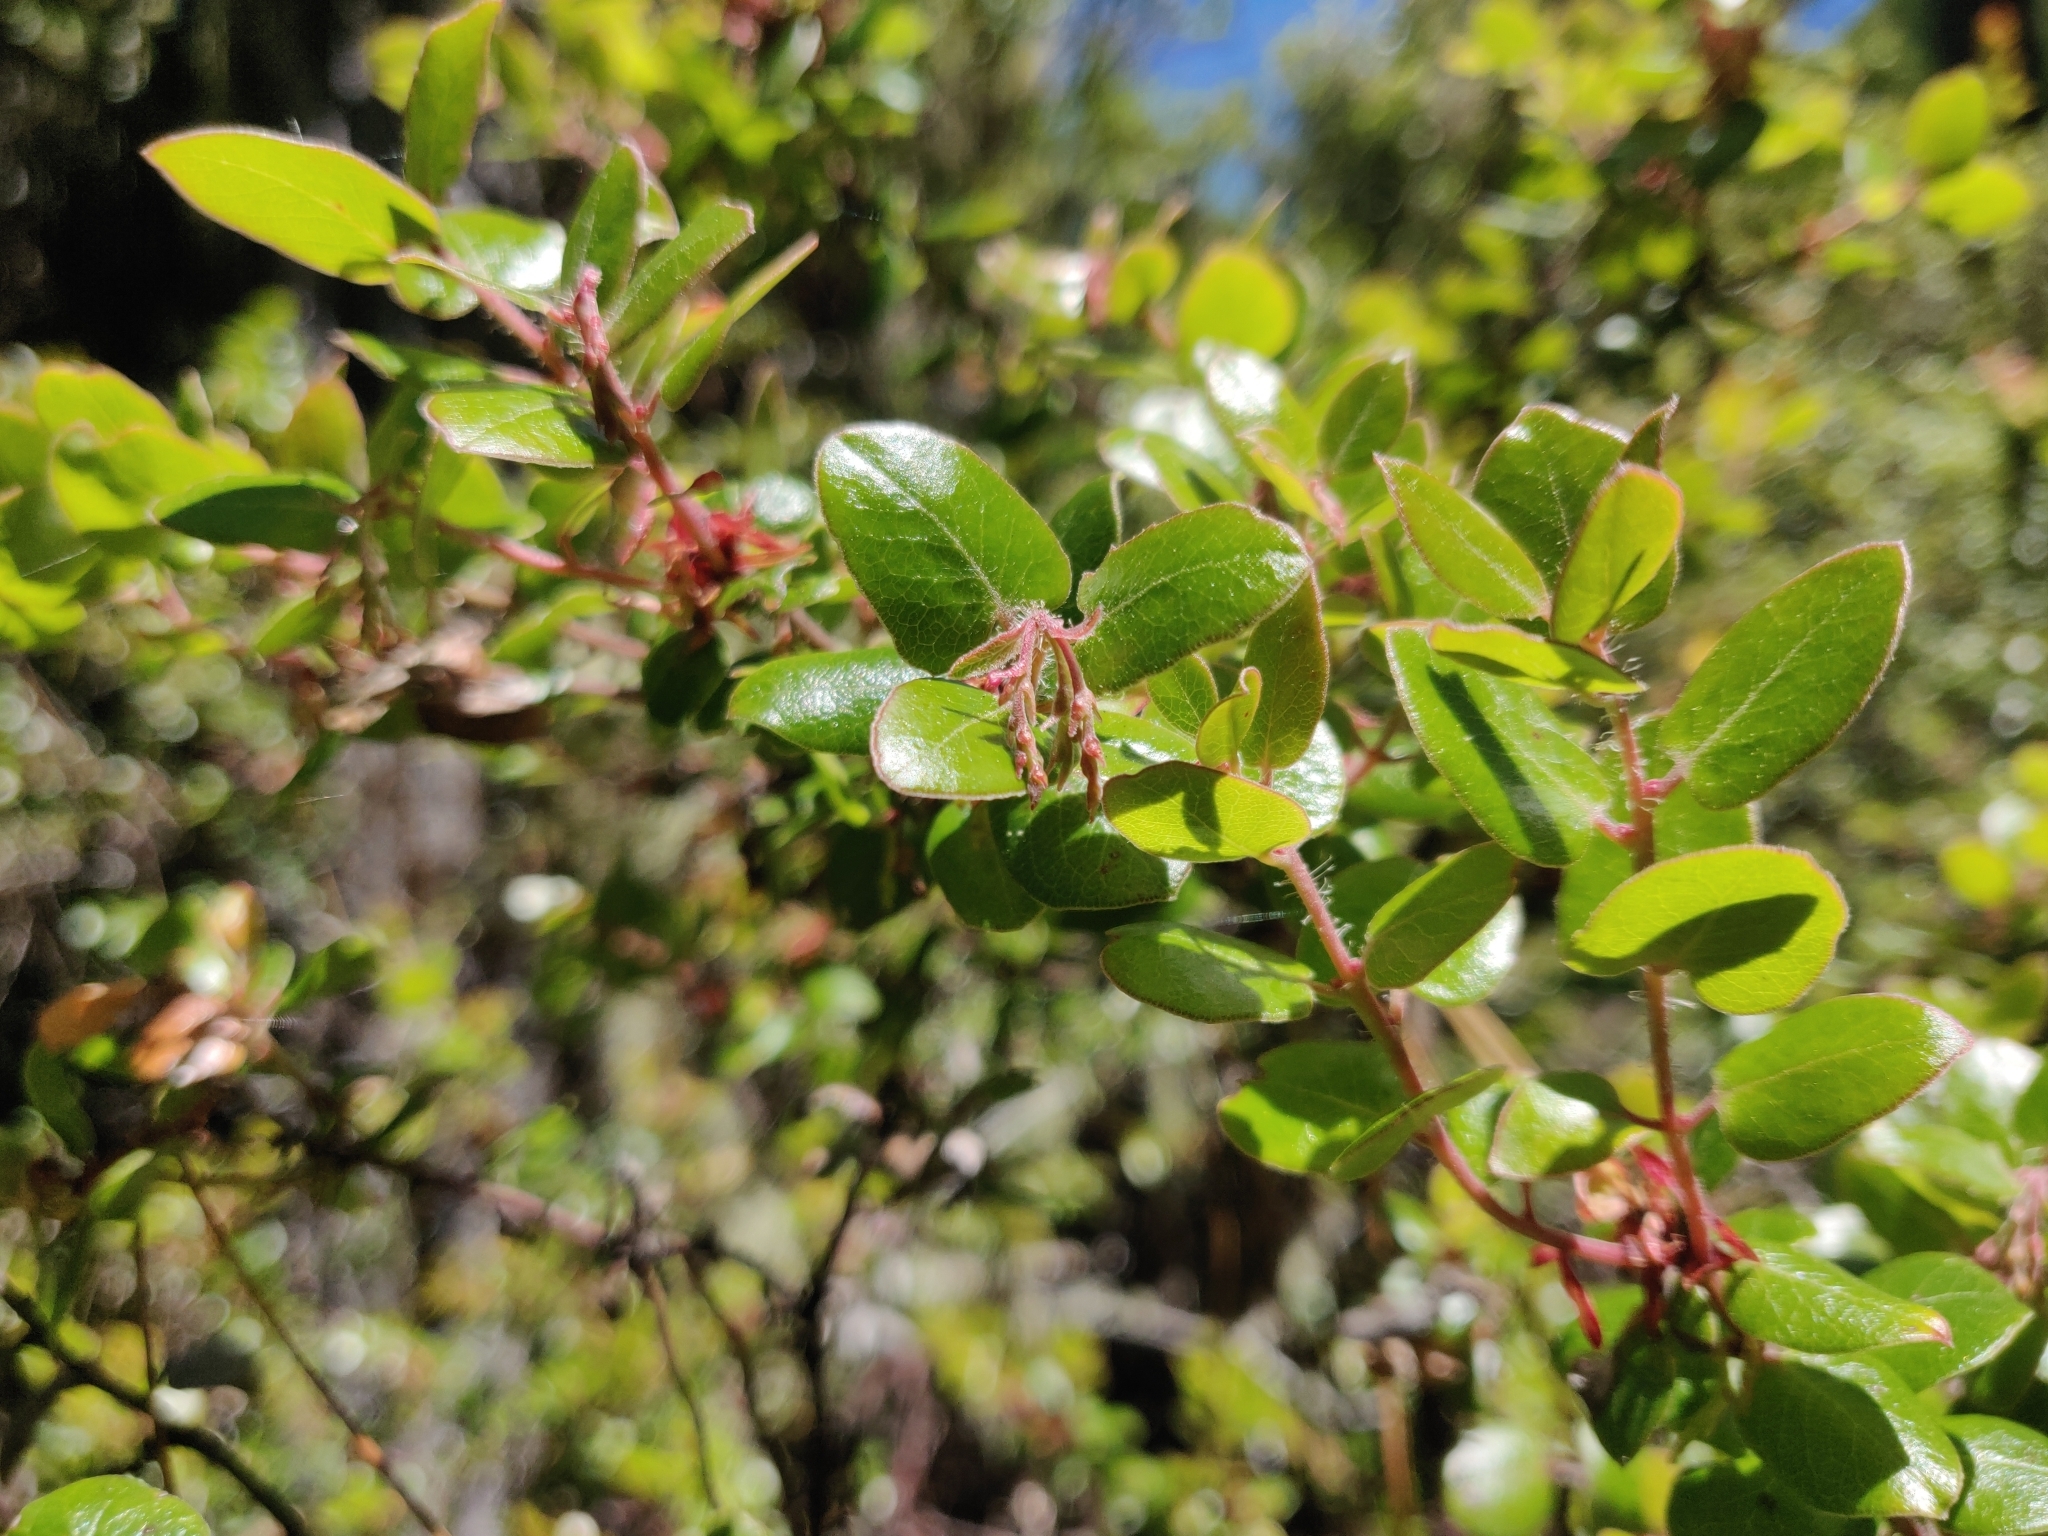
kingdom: Plantae
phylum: Tracheophyta
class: Magnoliopsida
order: Ericales
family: Ericaceae
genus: Arctostaphylos
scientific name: Arctostaphylos nummularia
